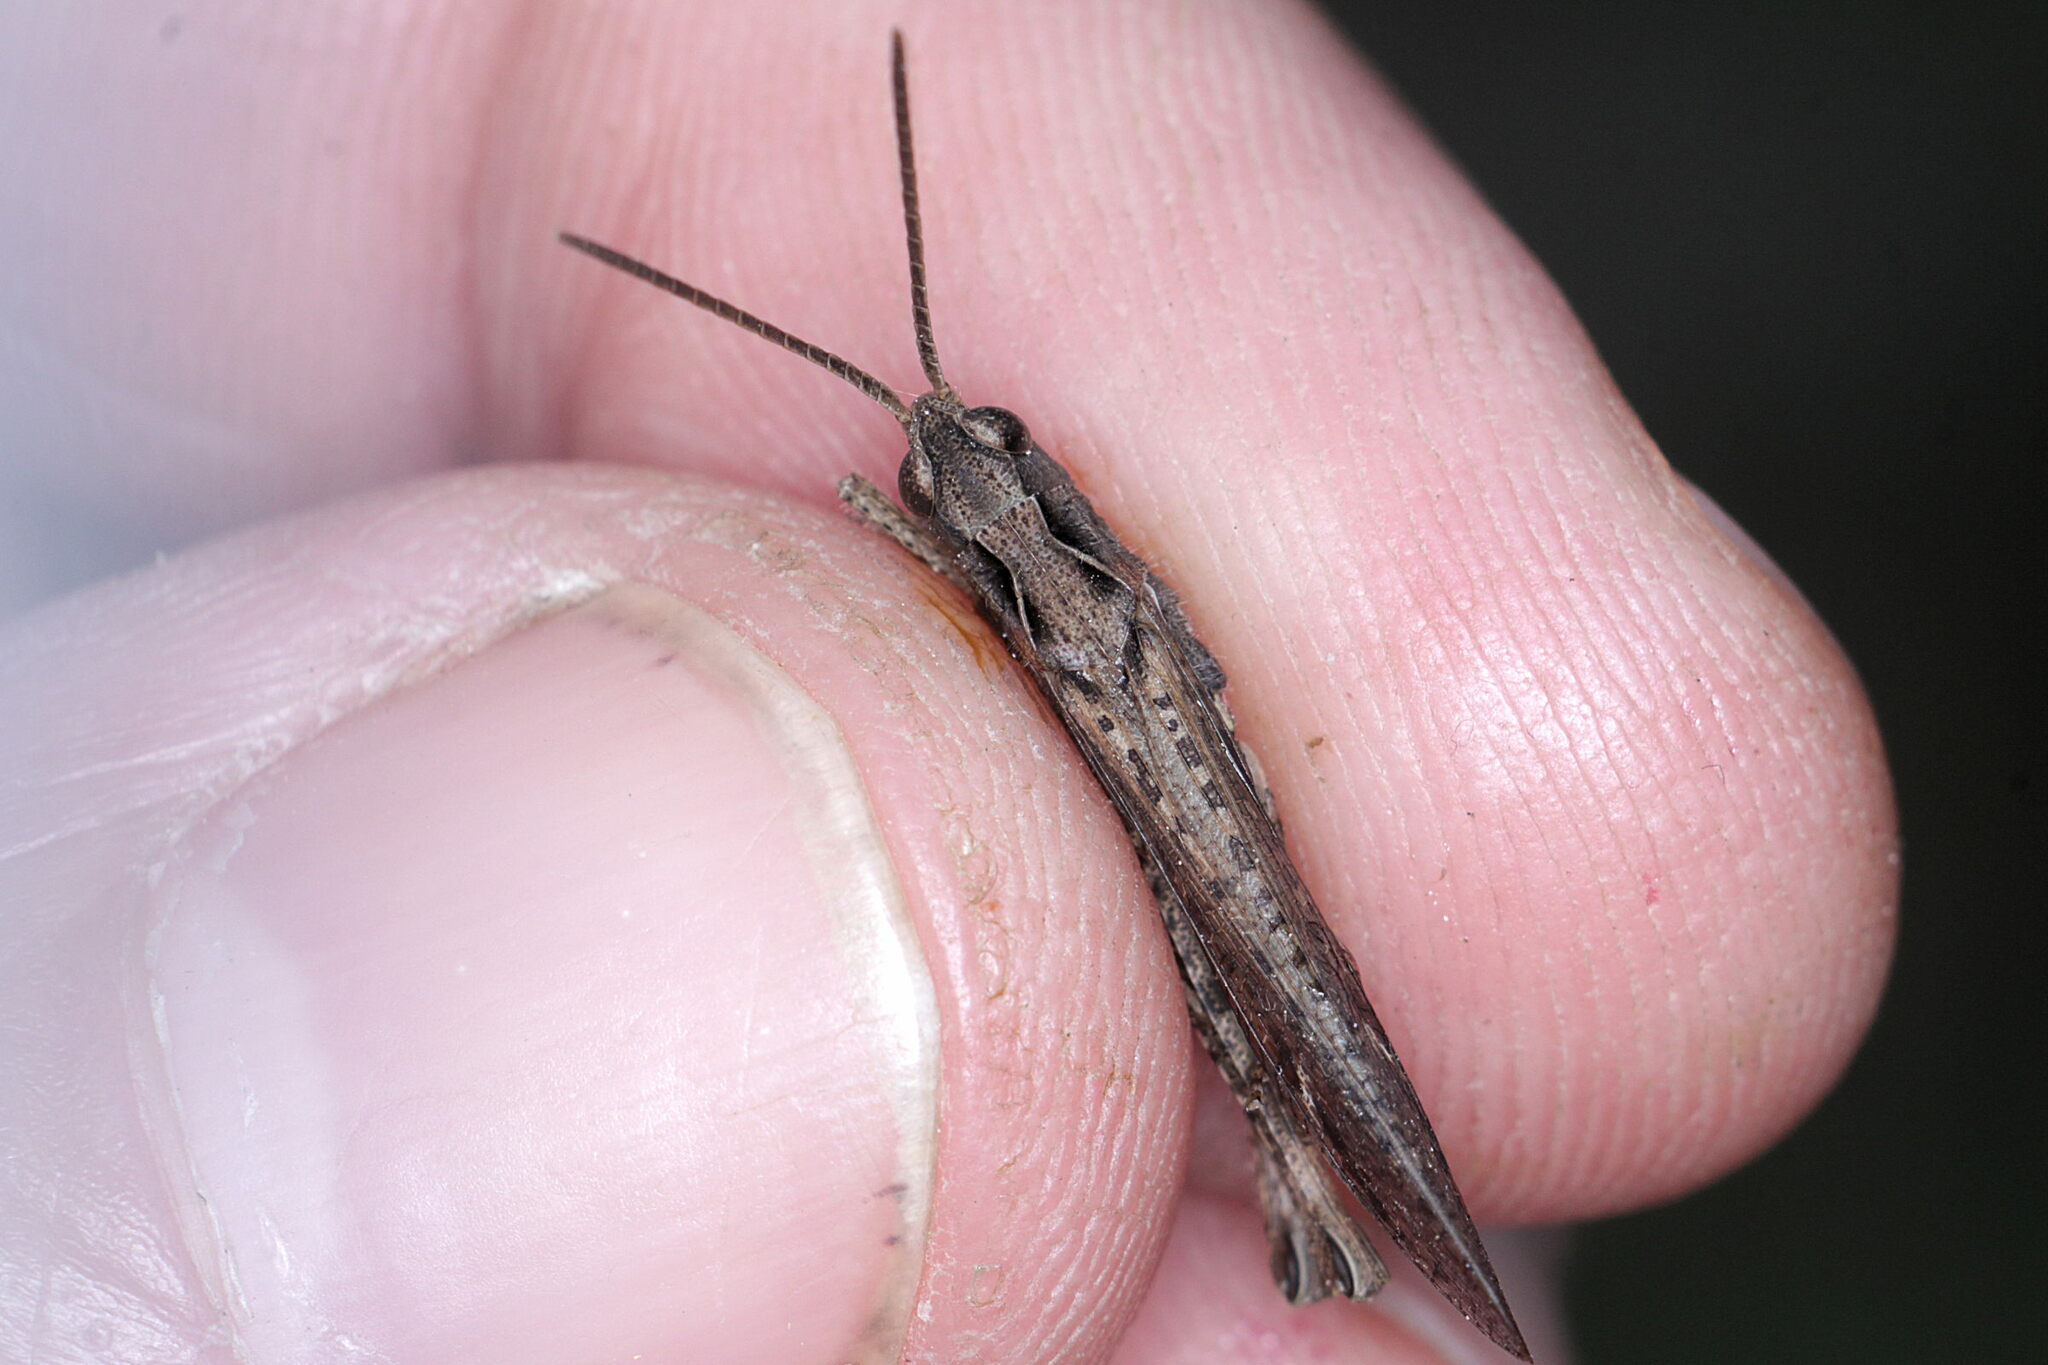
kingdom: Animalia
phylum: Arthropoda
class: Insecta
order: Orthoptera
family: Acrididae
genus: Chorthippus
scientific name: Chorthippus brunneus
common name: Field grasshopper
